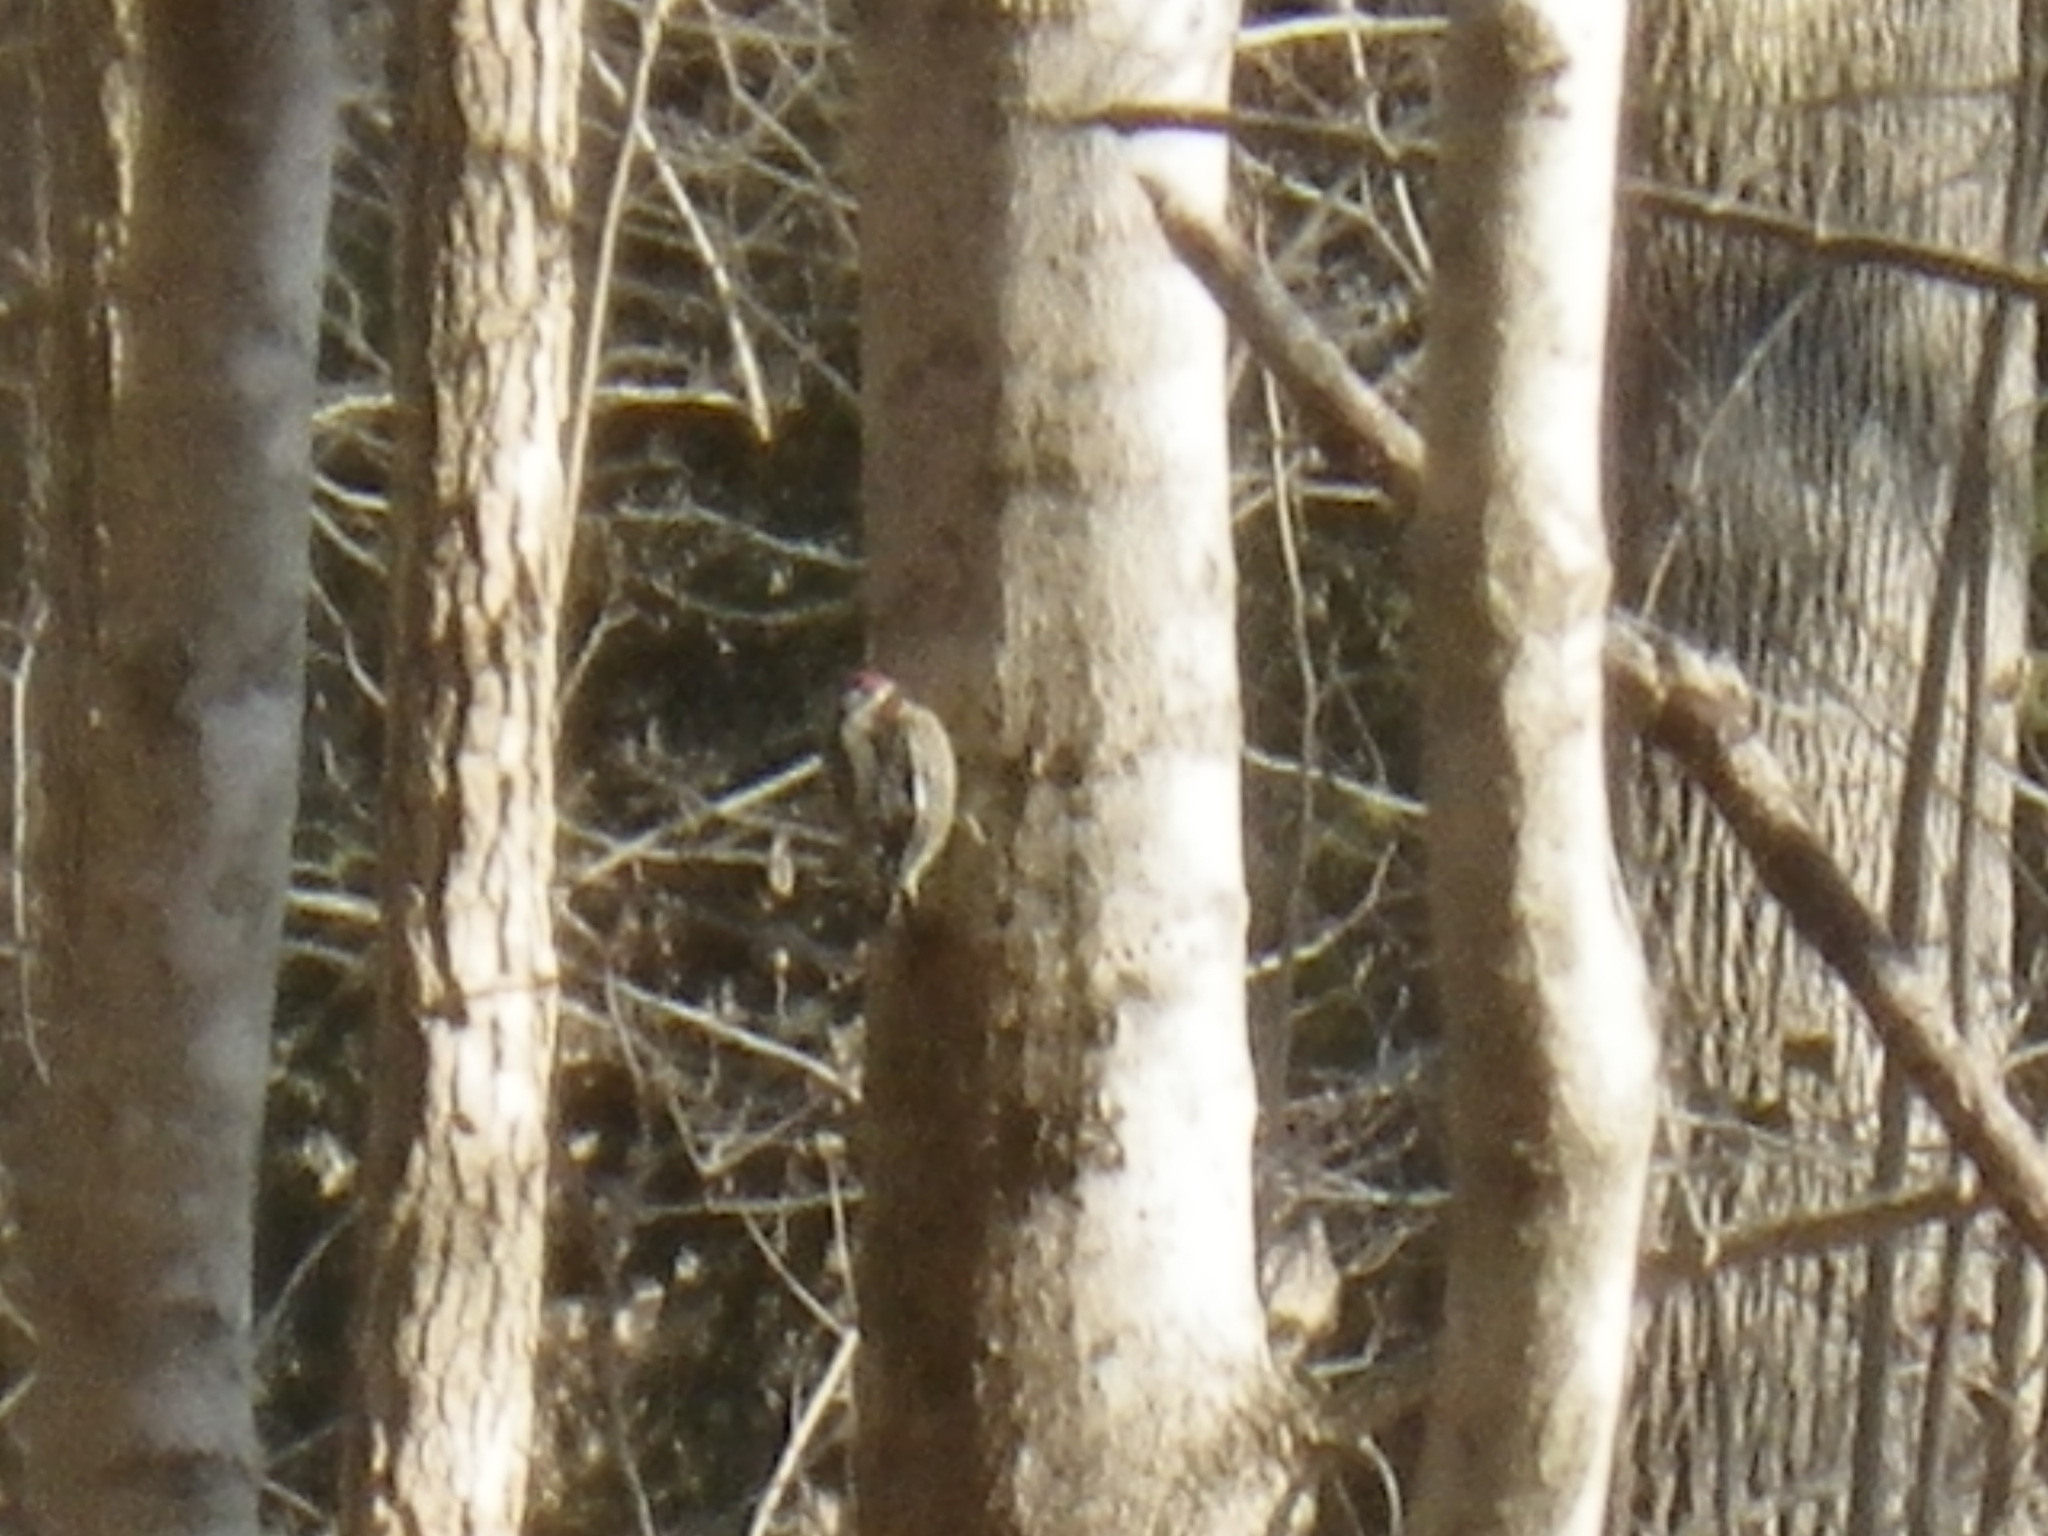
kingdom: Animalia
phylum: Chordata
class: Aves
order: Piciformes
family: Picidae
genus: Sphyrapicus
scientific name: Sphyrapicus varius
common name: Yellow-bellied sapsucker
